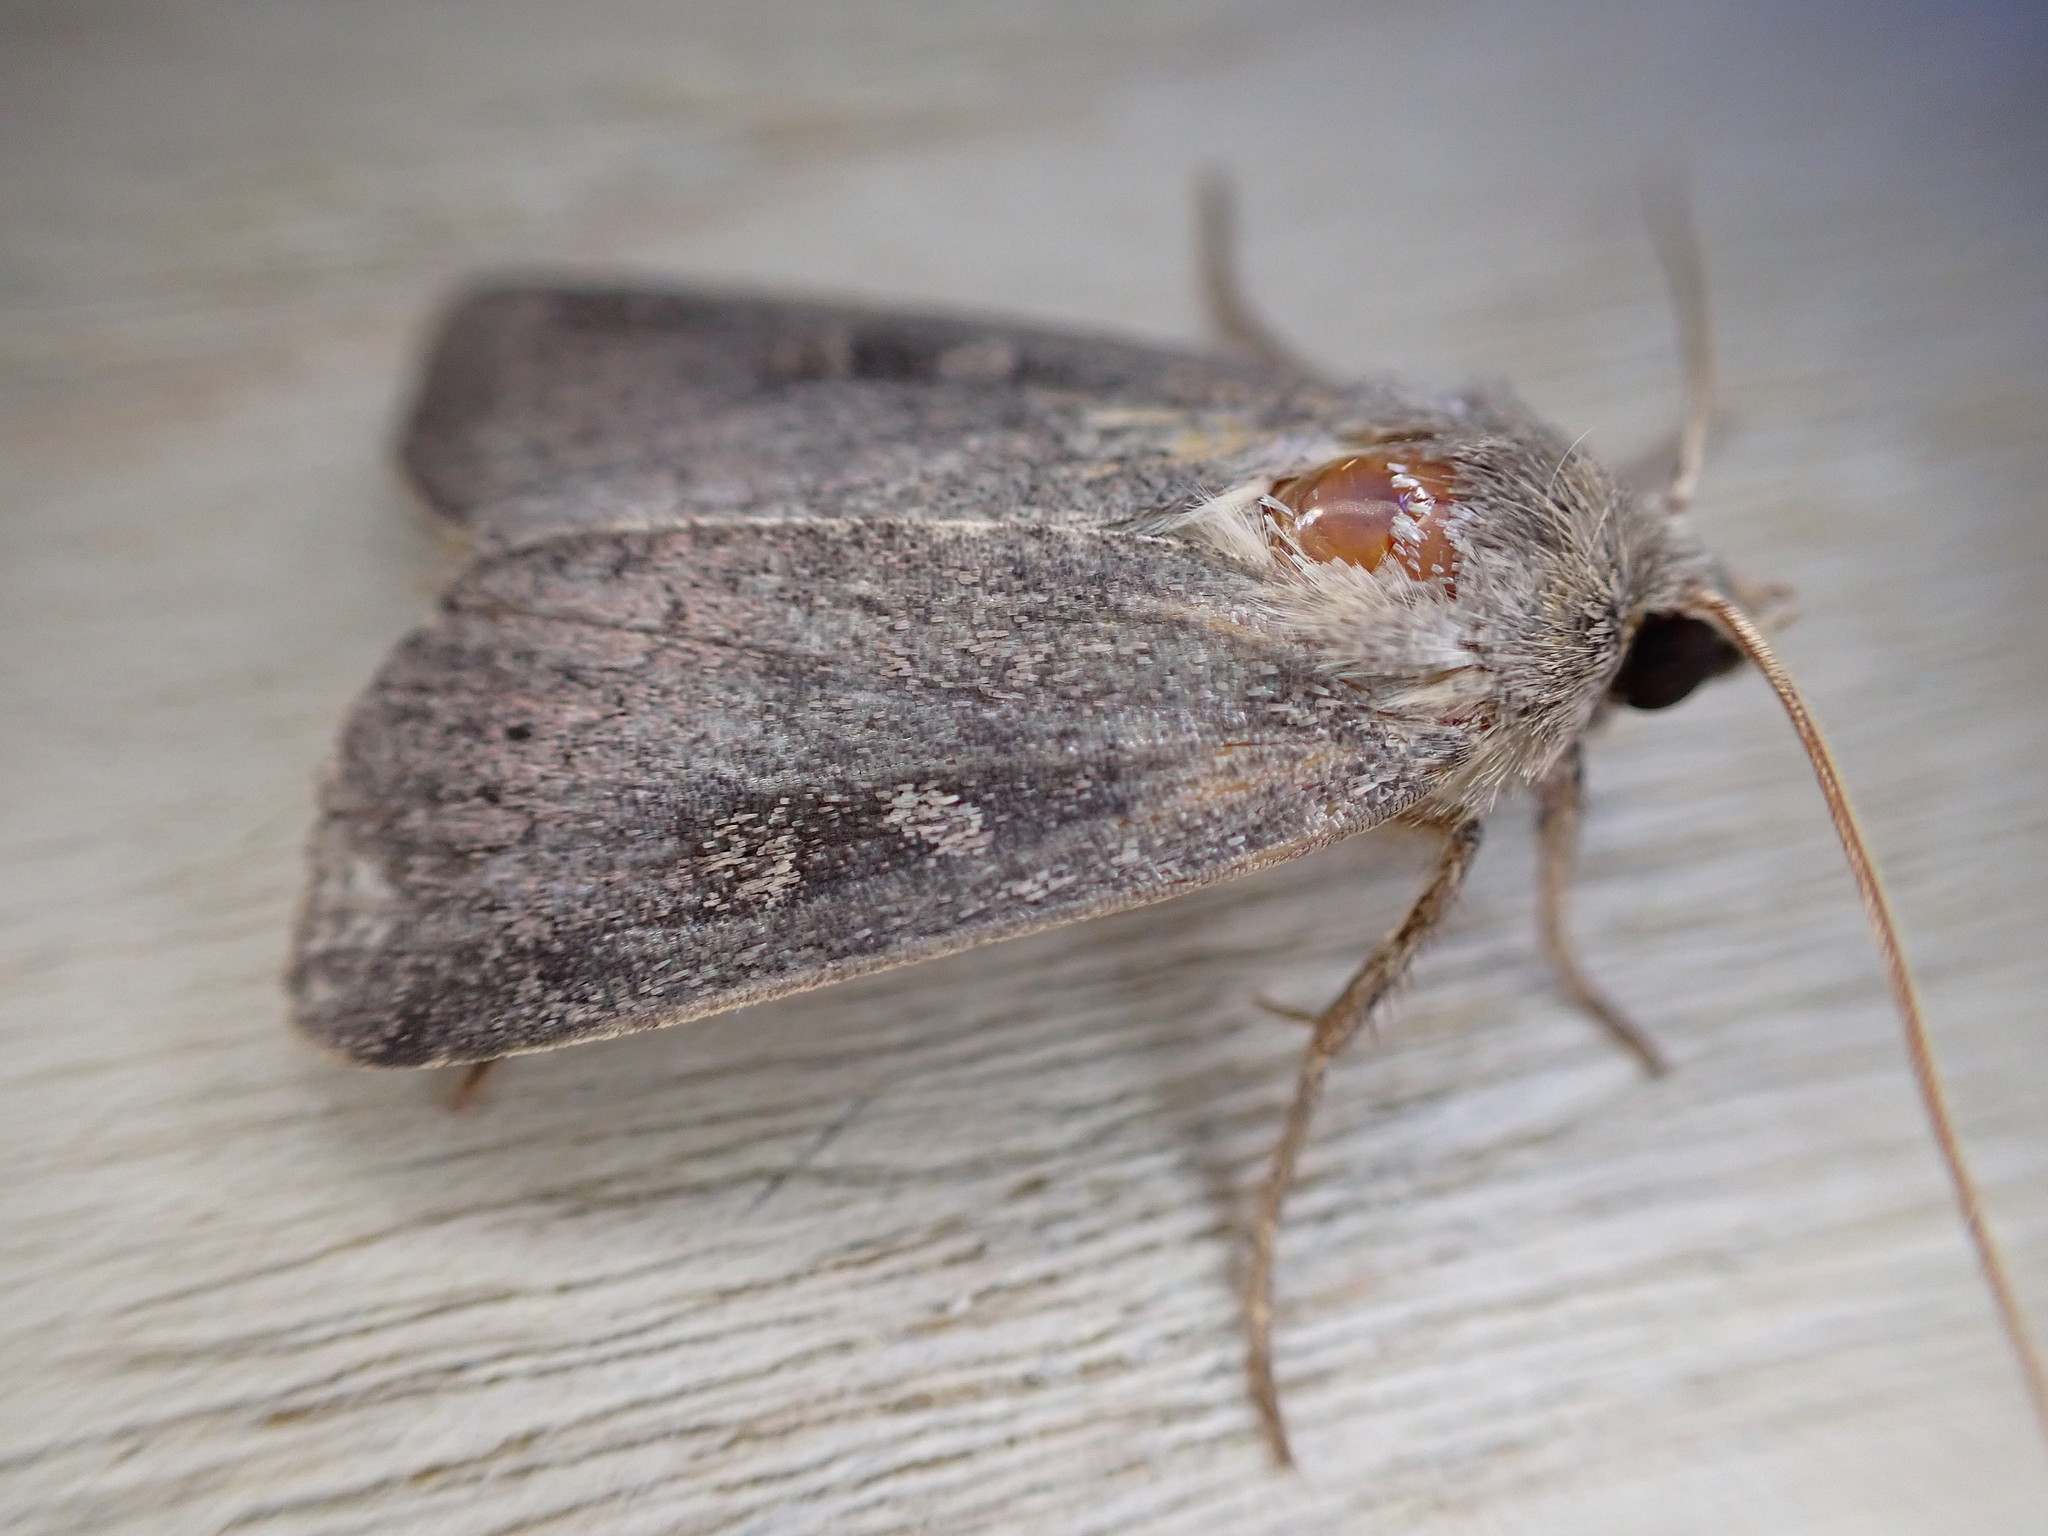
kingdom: Animalia
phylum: Arthropoda
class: Insecta
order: Lepidoptera
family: Noctuidae
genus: Xestia
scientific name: Xestia xanthographa
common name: Square-spot rustic
